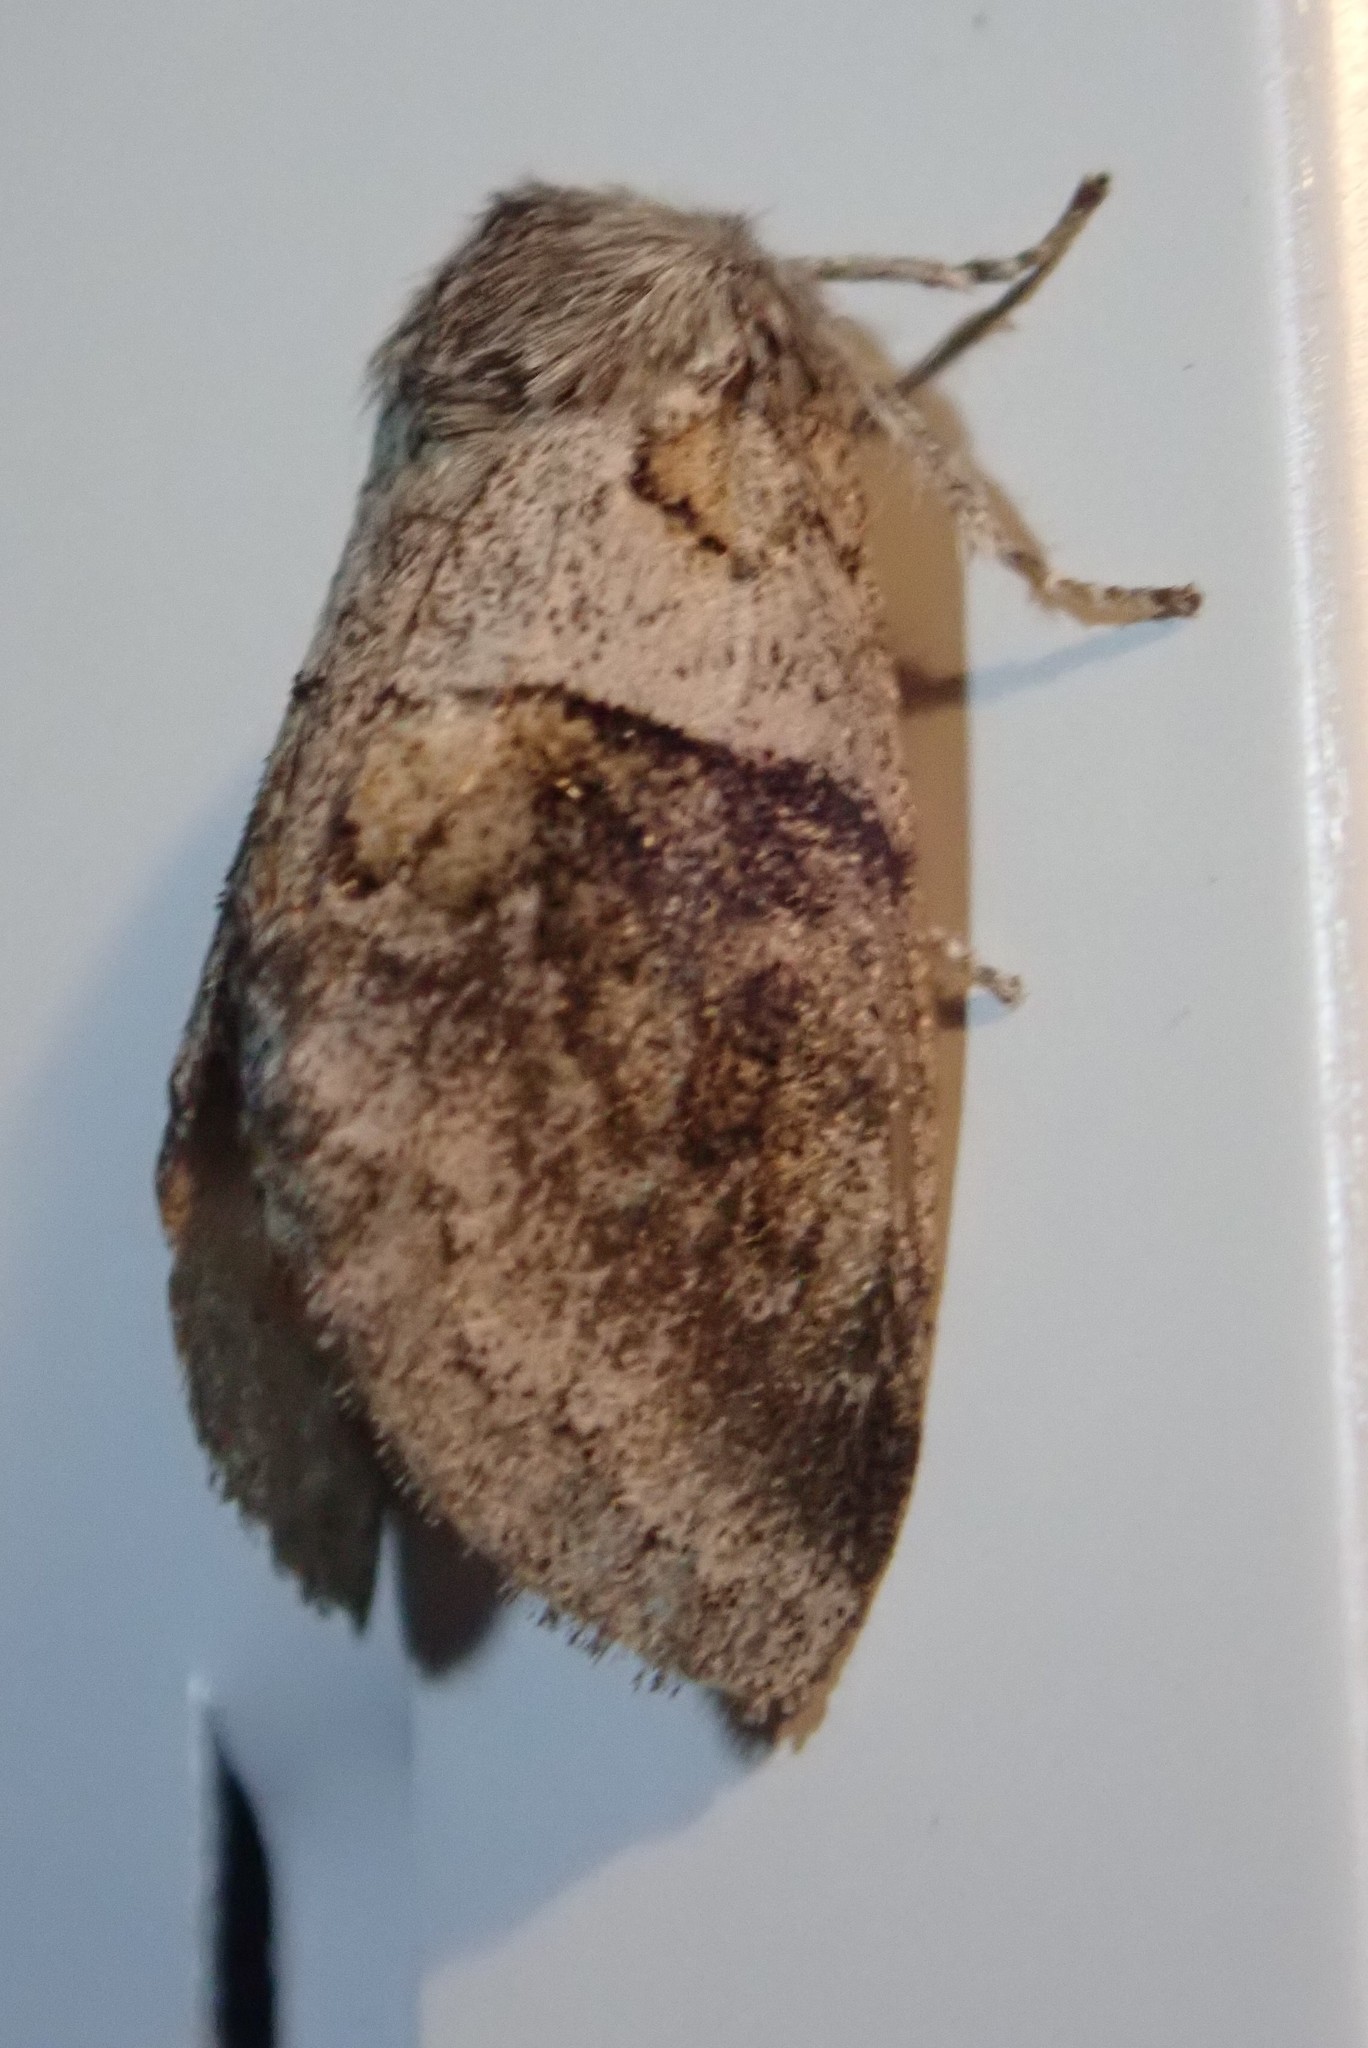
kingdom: Animalia
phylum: Arthropoda
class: Insecta
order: Lepidoptera
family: Notodontidae
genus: Gluphisia
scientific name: Gluphisia septentrionis
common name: Common gluphisia
